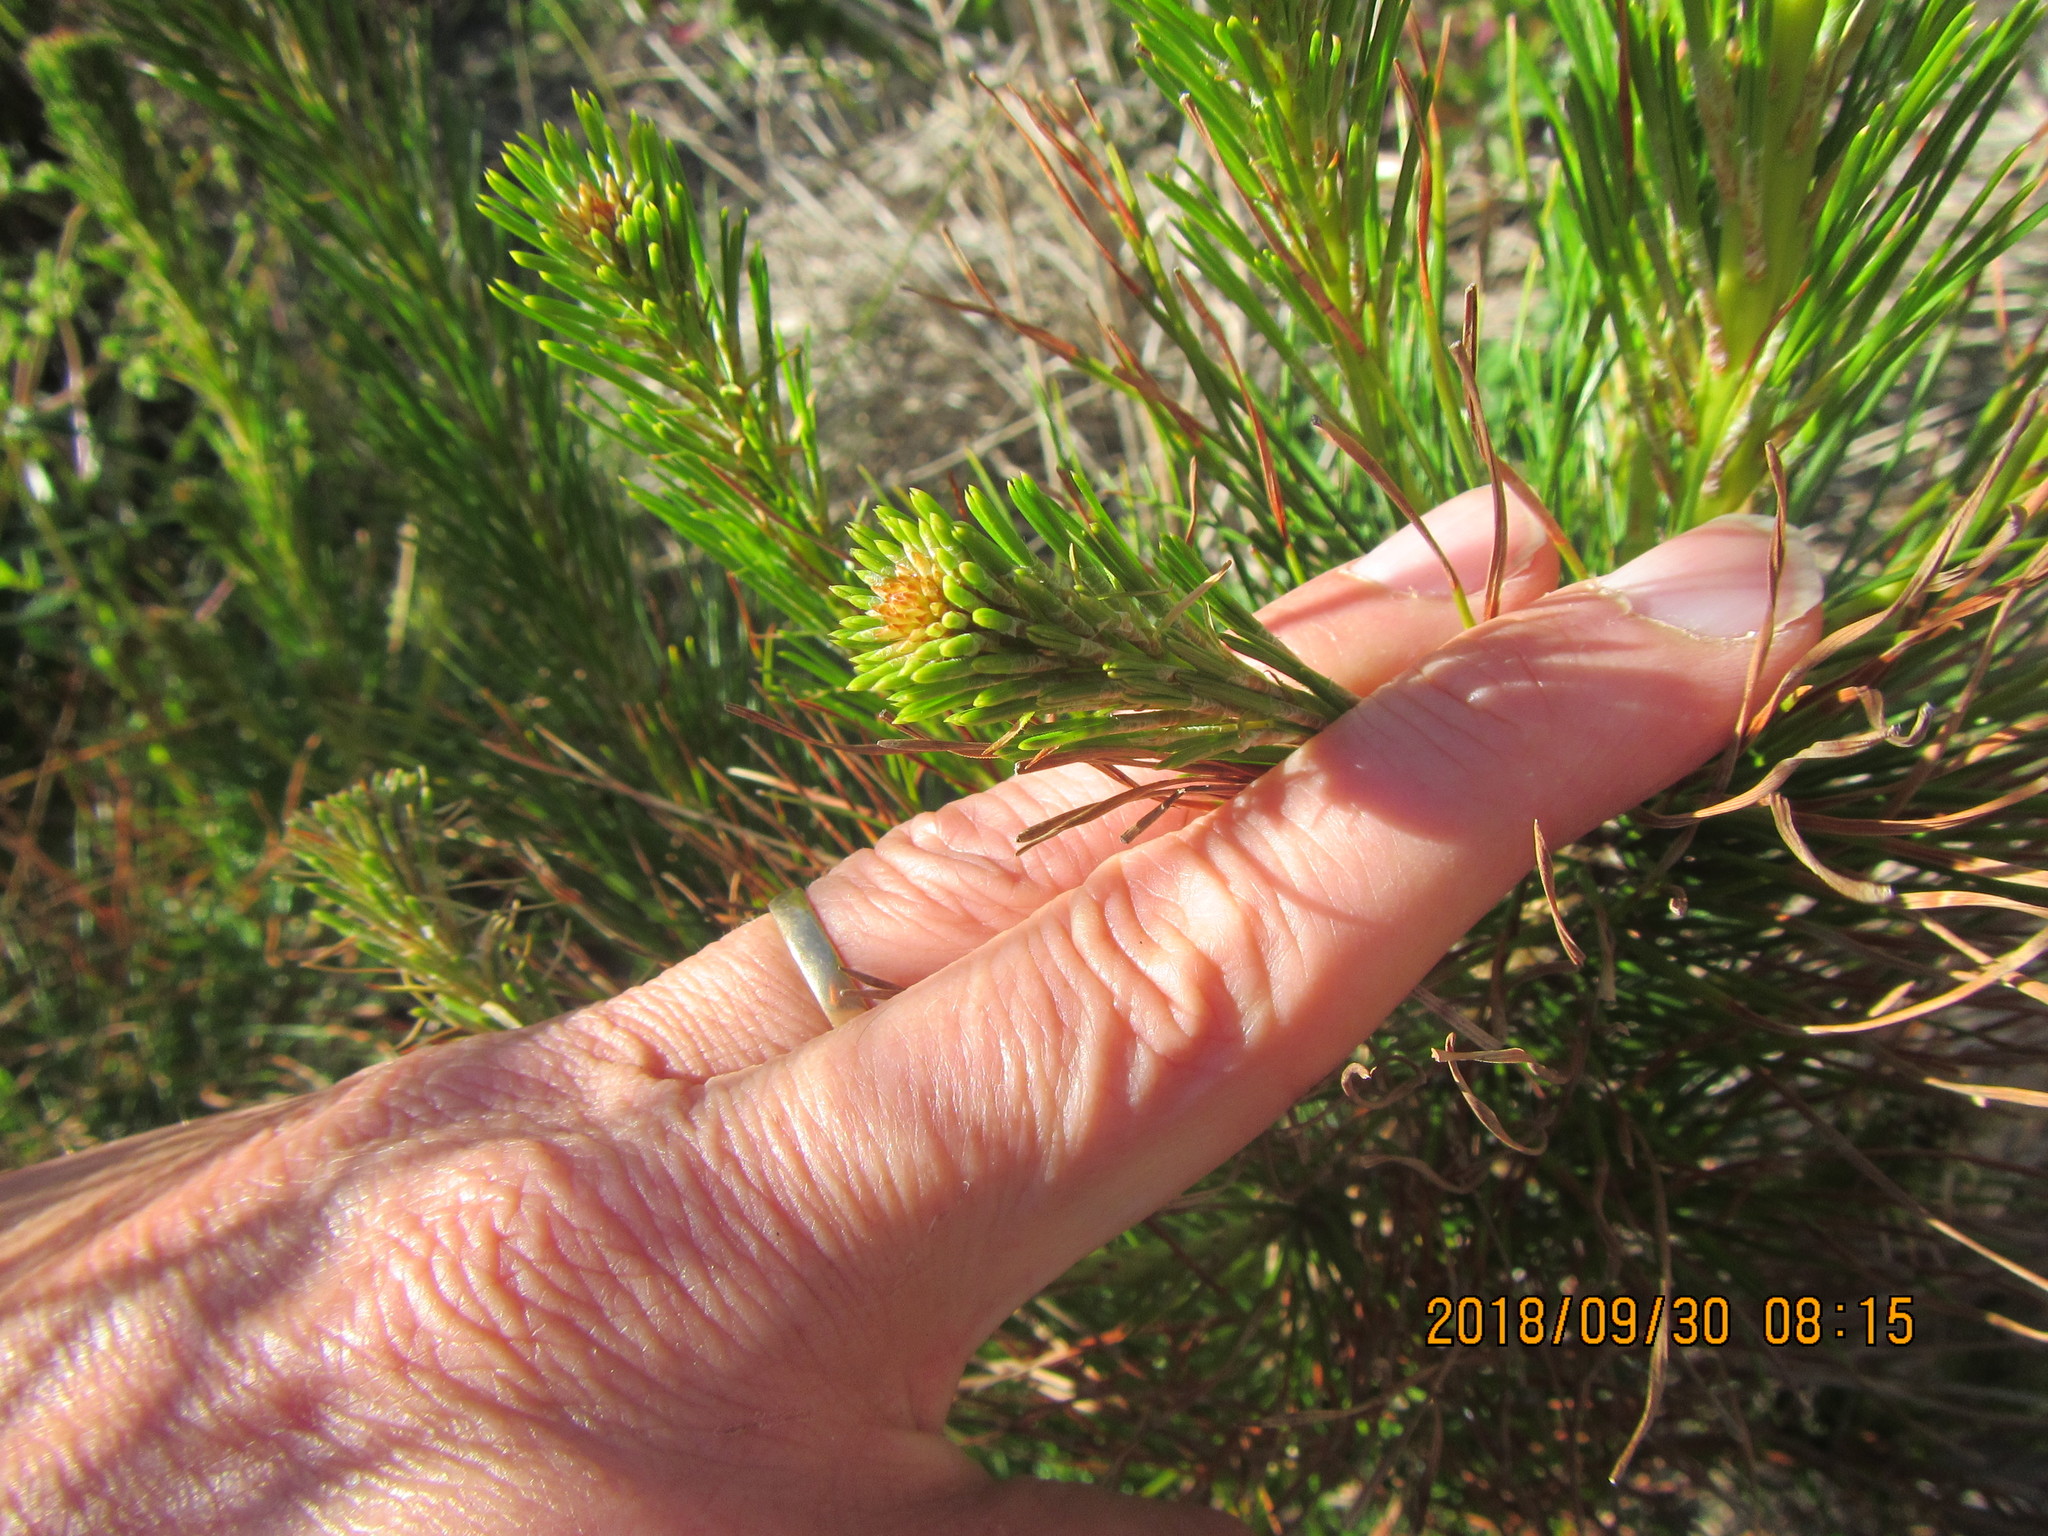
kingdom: Plantae
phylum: Tracheophyta
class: Pinopsida
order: Pinales
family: Pinaceae
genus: Pinus
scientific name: Pinus radiata
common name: Monterey pine
